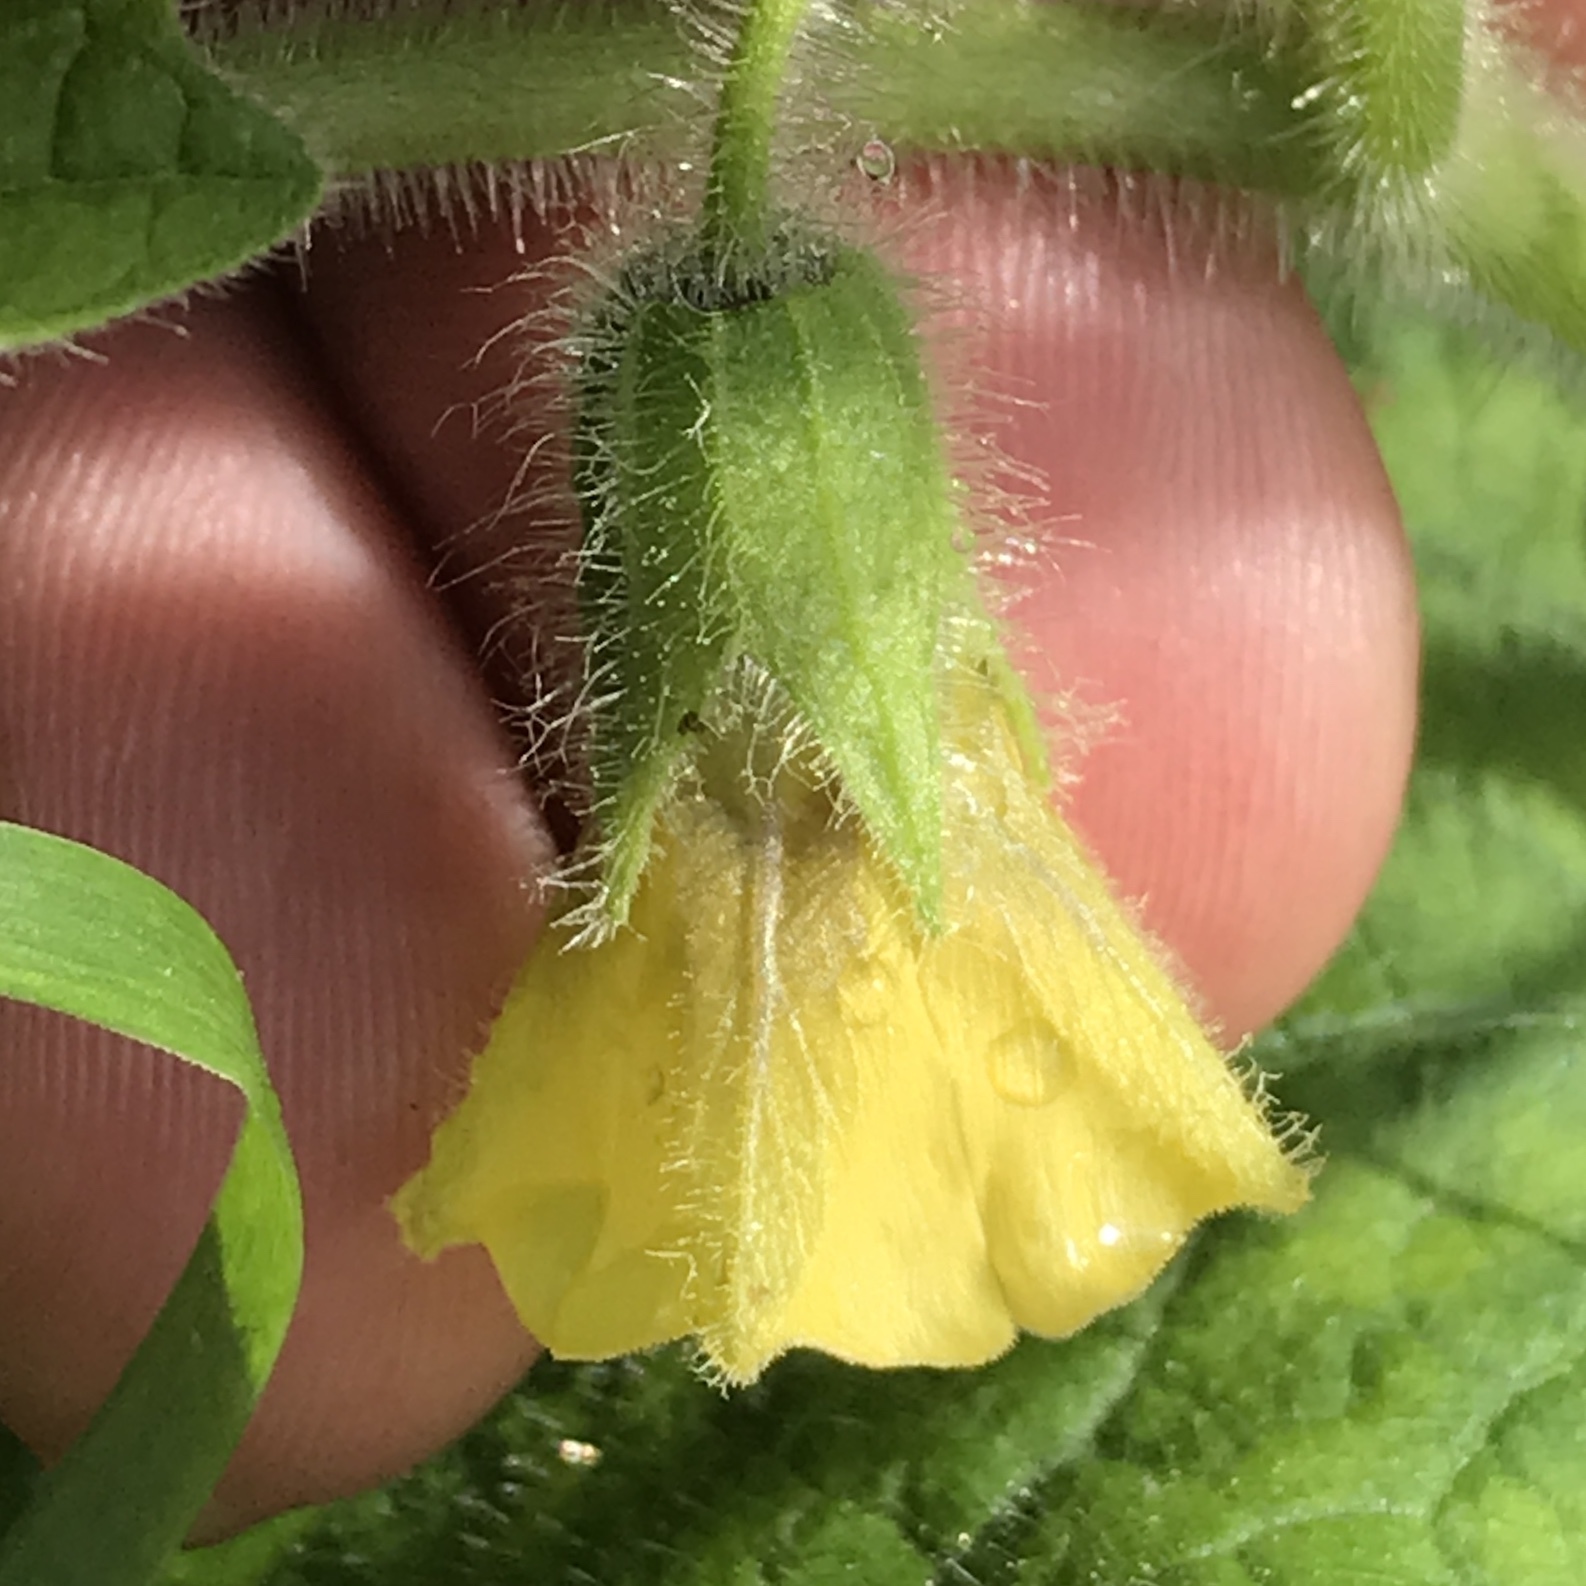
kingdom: Plantae
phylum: Tracheophyta
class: Magnoliopsida
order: Solanales
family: Solanaceae
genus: Physalis
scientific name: Physalis heterophylla
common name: Clammy ground-cherry
